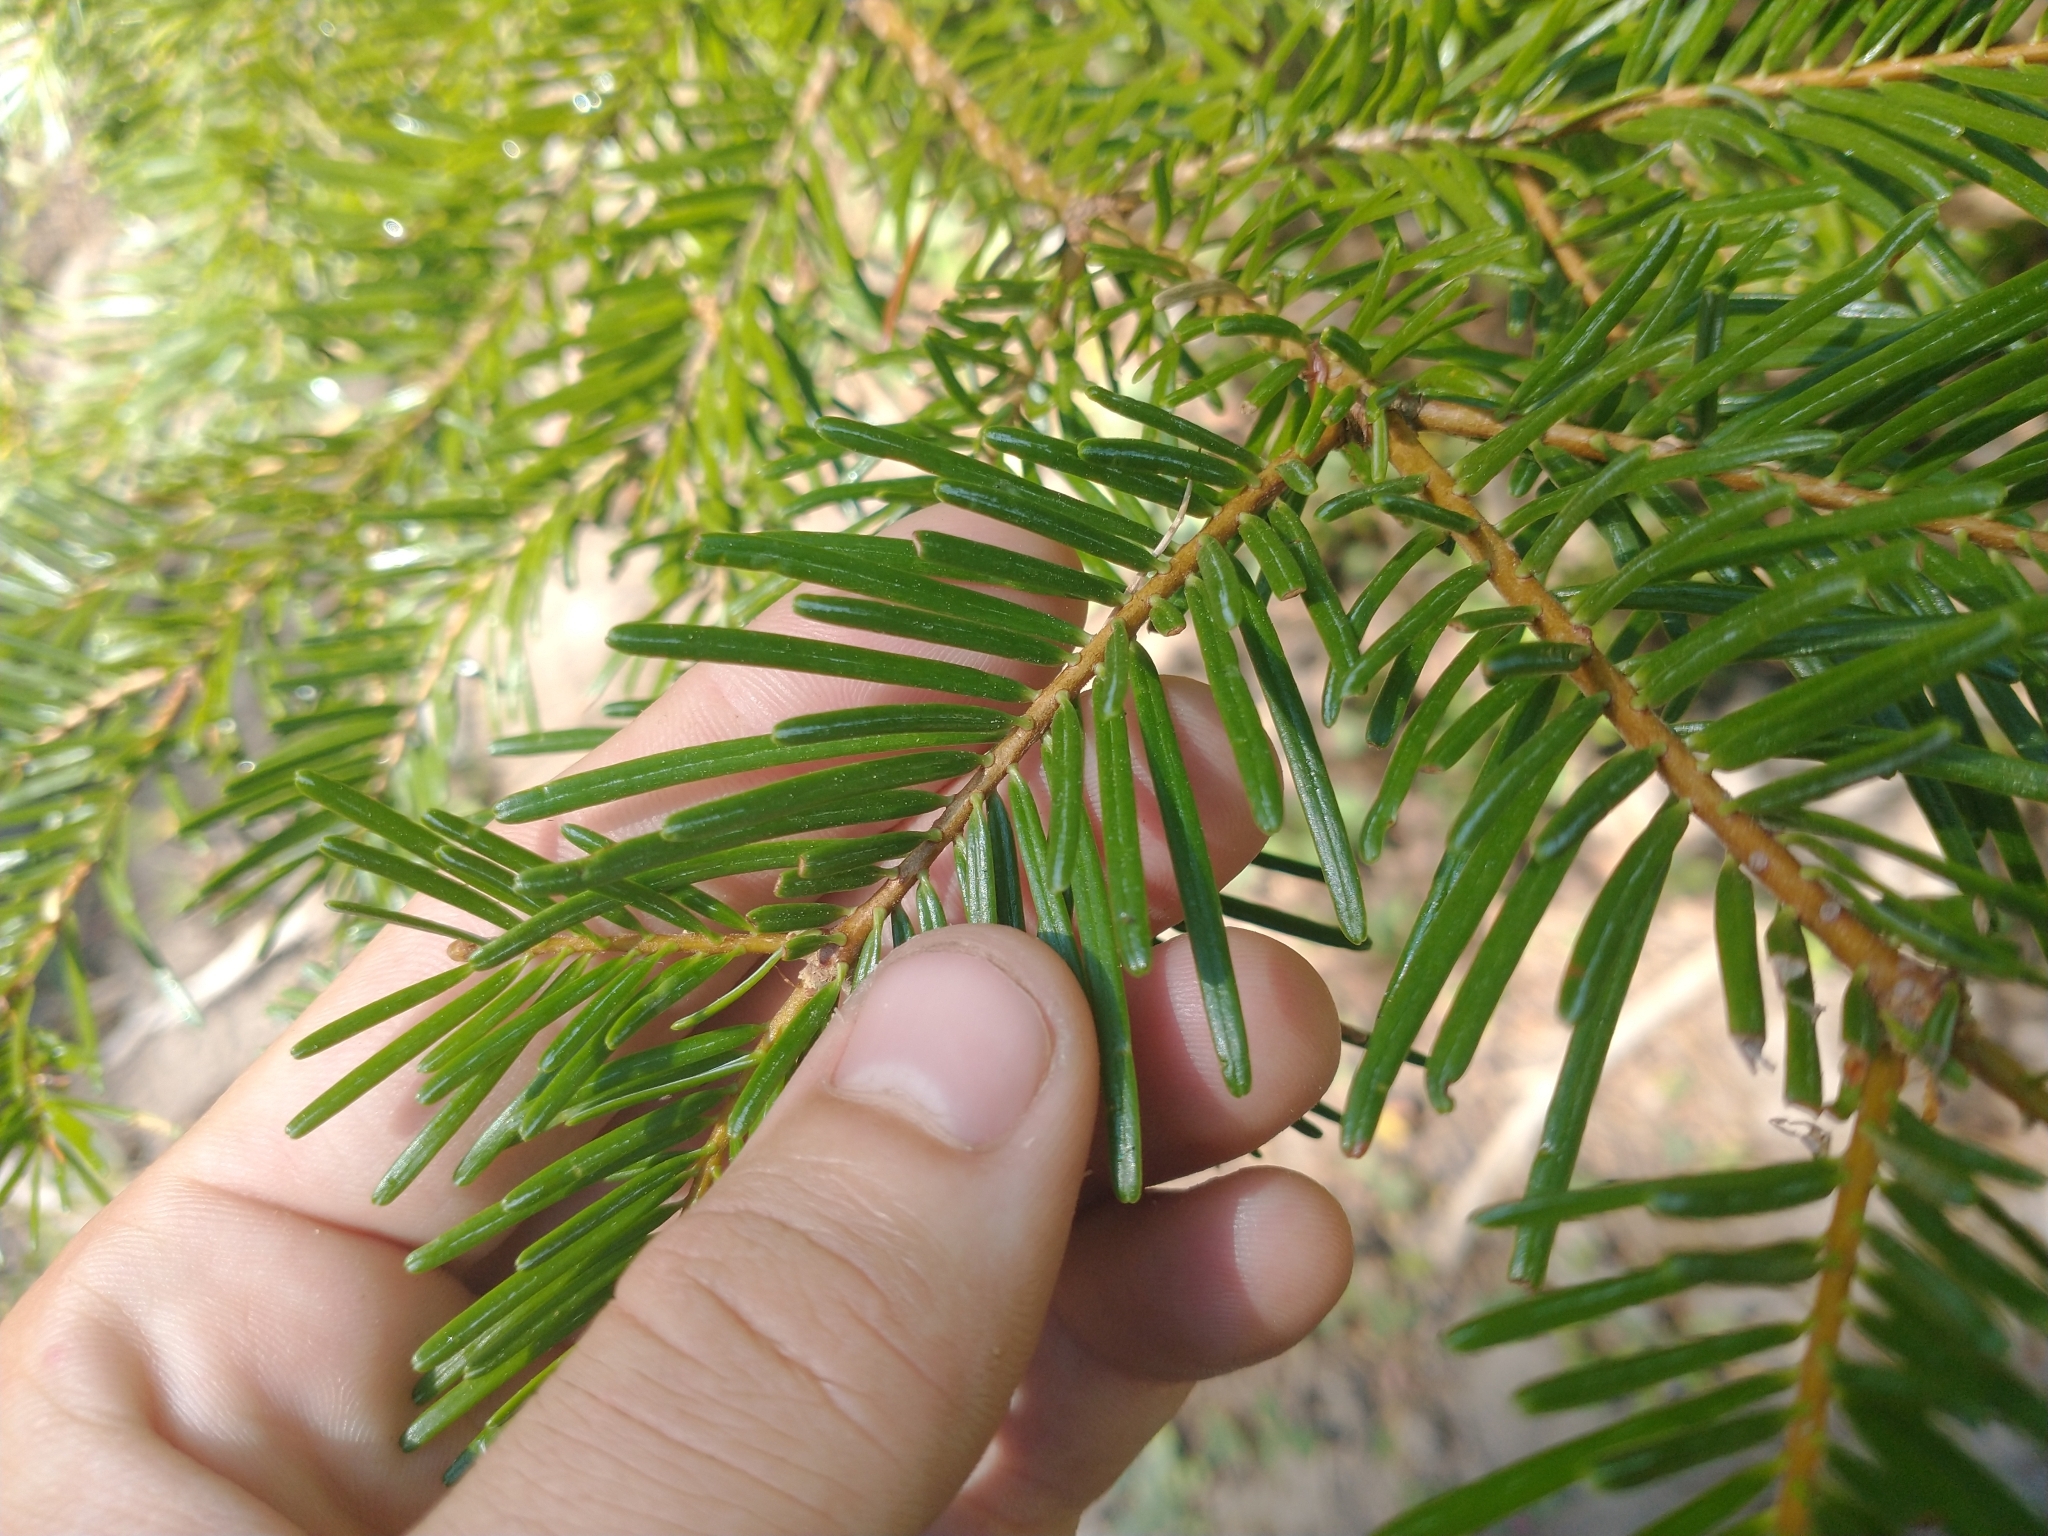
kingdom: Plantae
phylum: Tracheophyta
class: Pinopsida
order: Pinales
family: Pinaceae
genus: Abies
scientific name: Abies concolor
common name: Colorado fir
